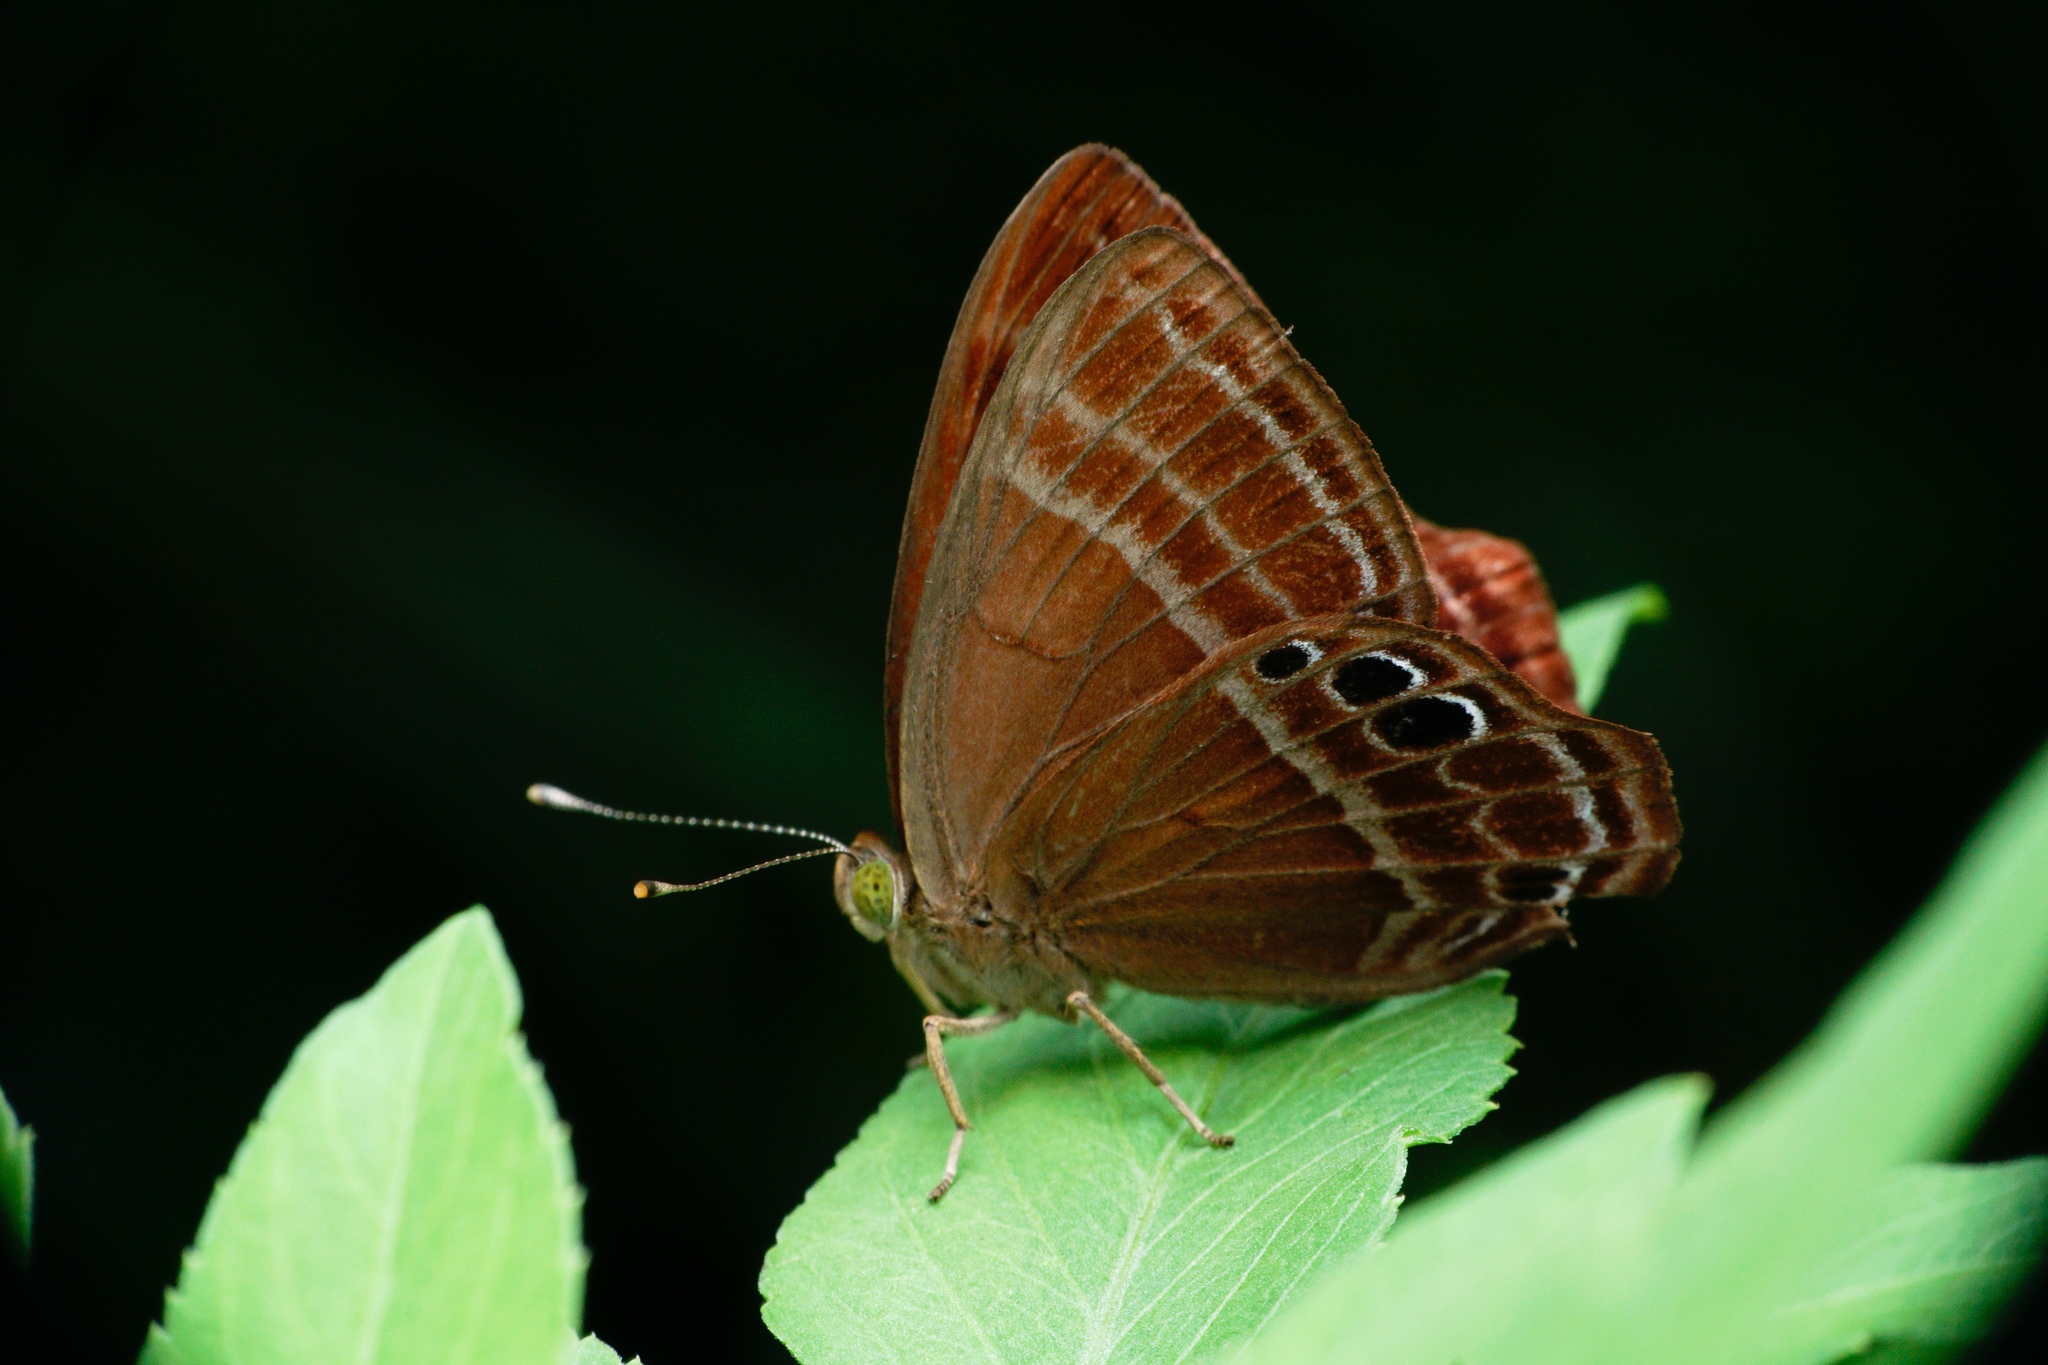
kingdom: Animalia
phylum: Arthropoda
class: Insecta
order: Lepidoptera
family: Lycaenidae
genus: Abisara
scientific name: Abisara echeria
